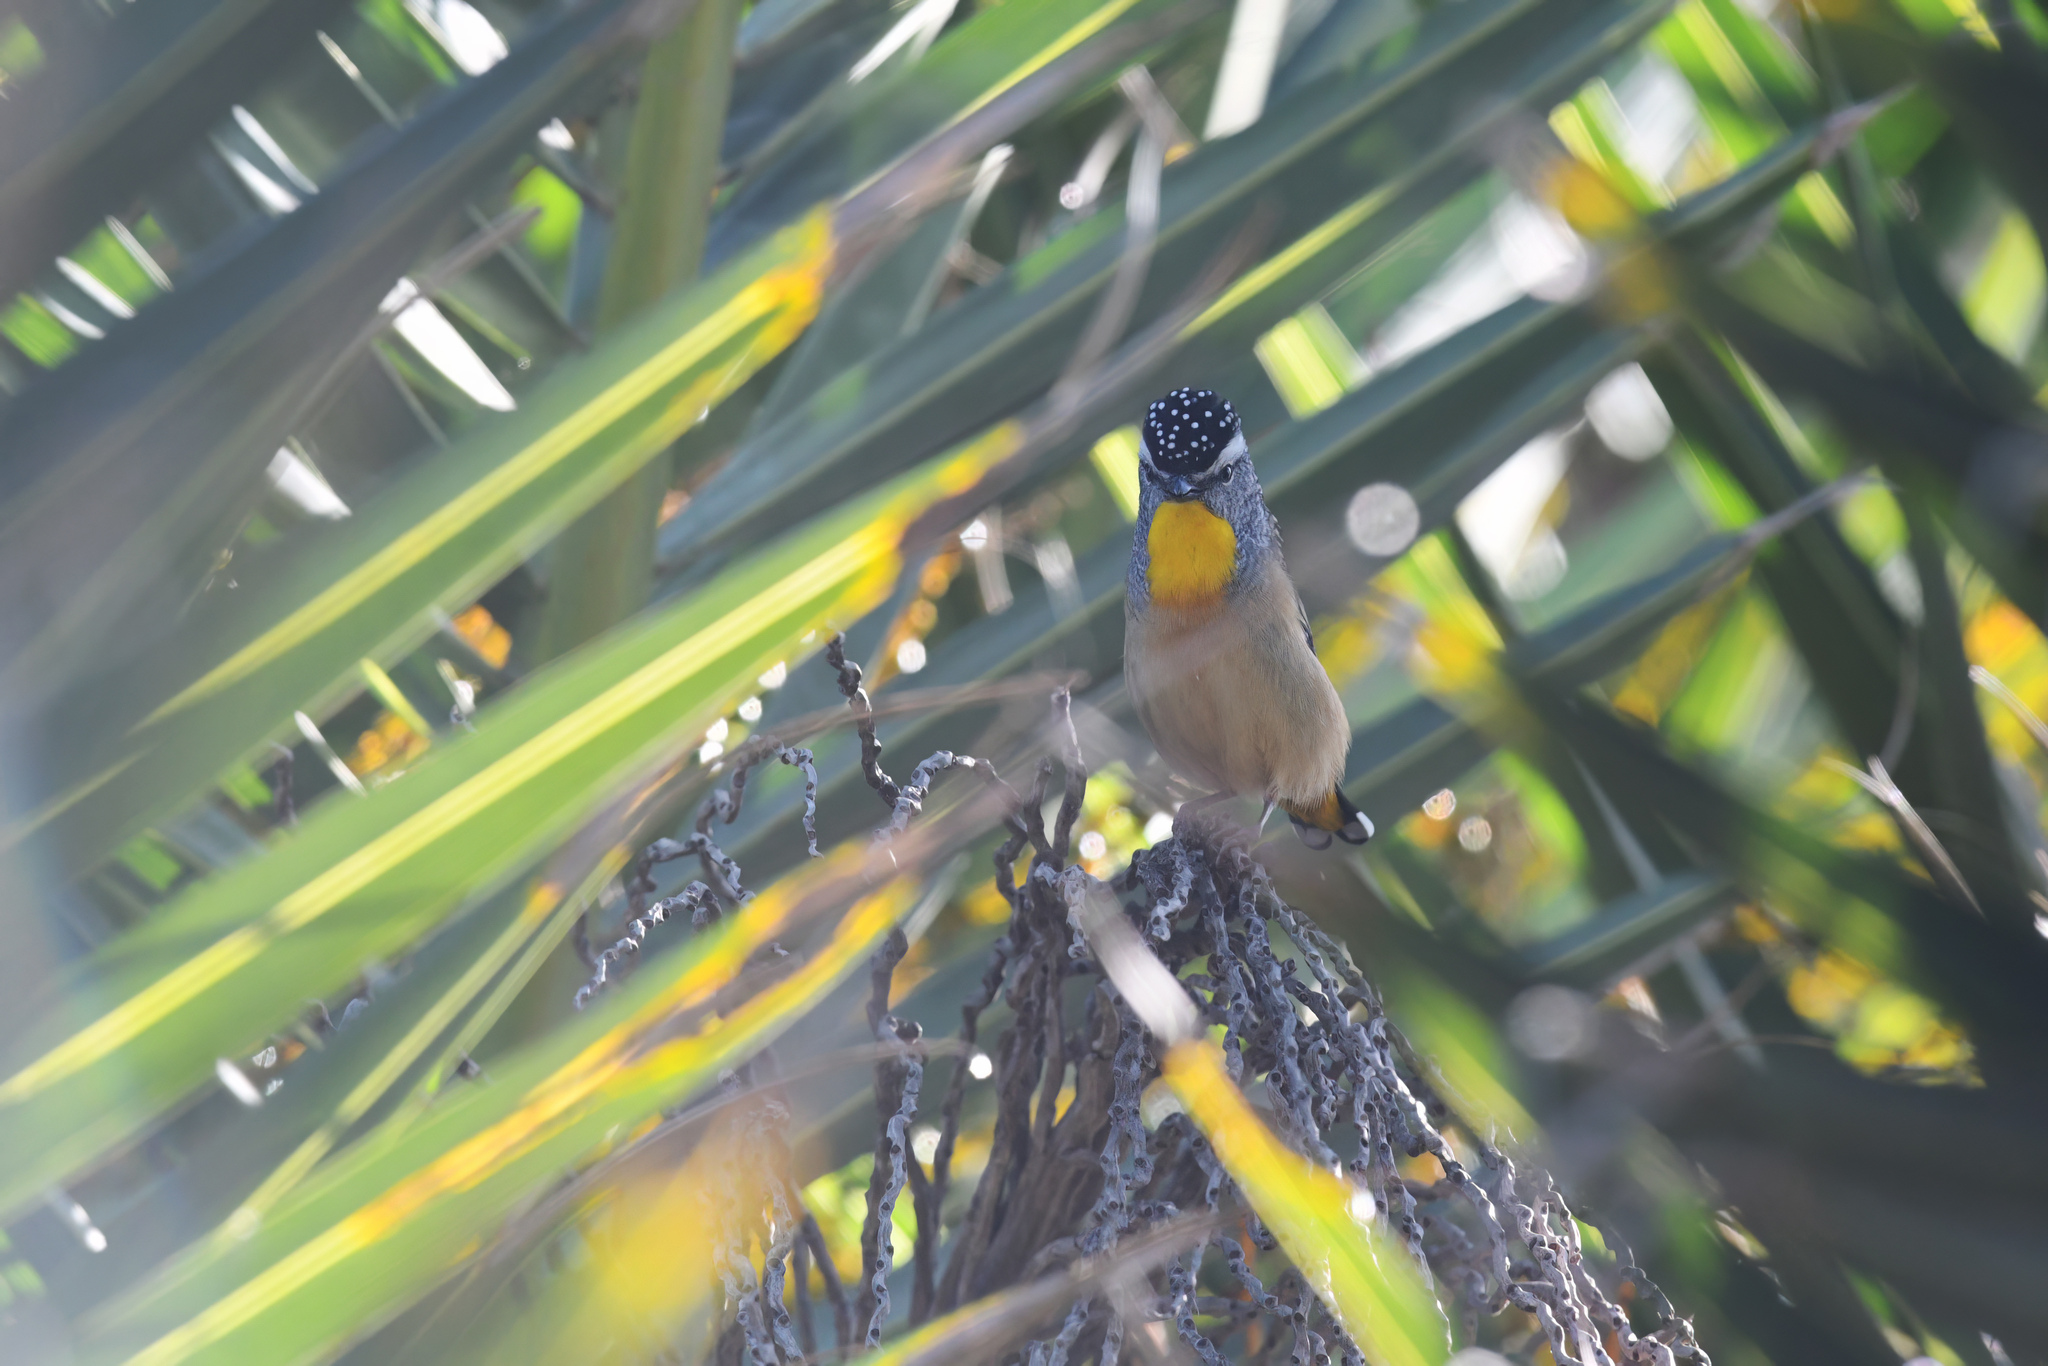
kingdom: Animalia
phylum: Chordata
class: Aves
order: Passeriformes
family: Pardalotidae
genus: Pardalotus
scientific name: Pardalotus punctatus
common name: Spotted pardalote
